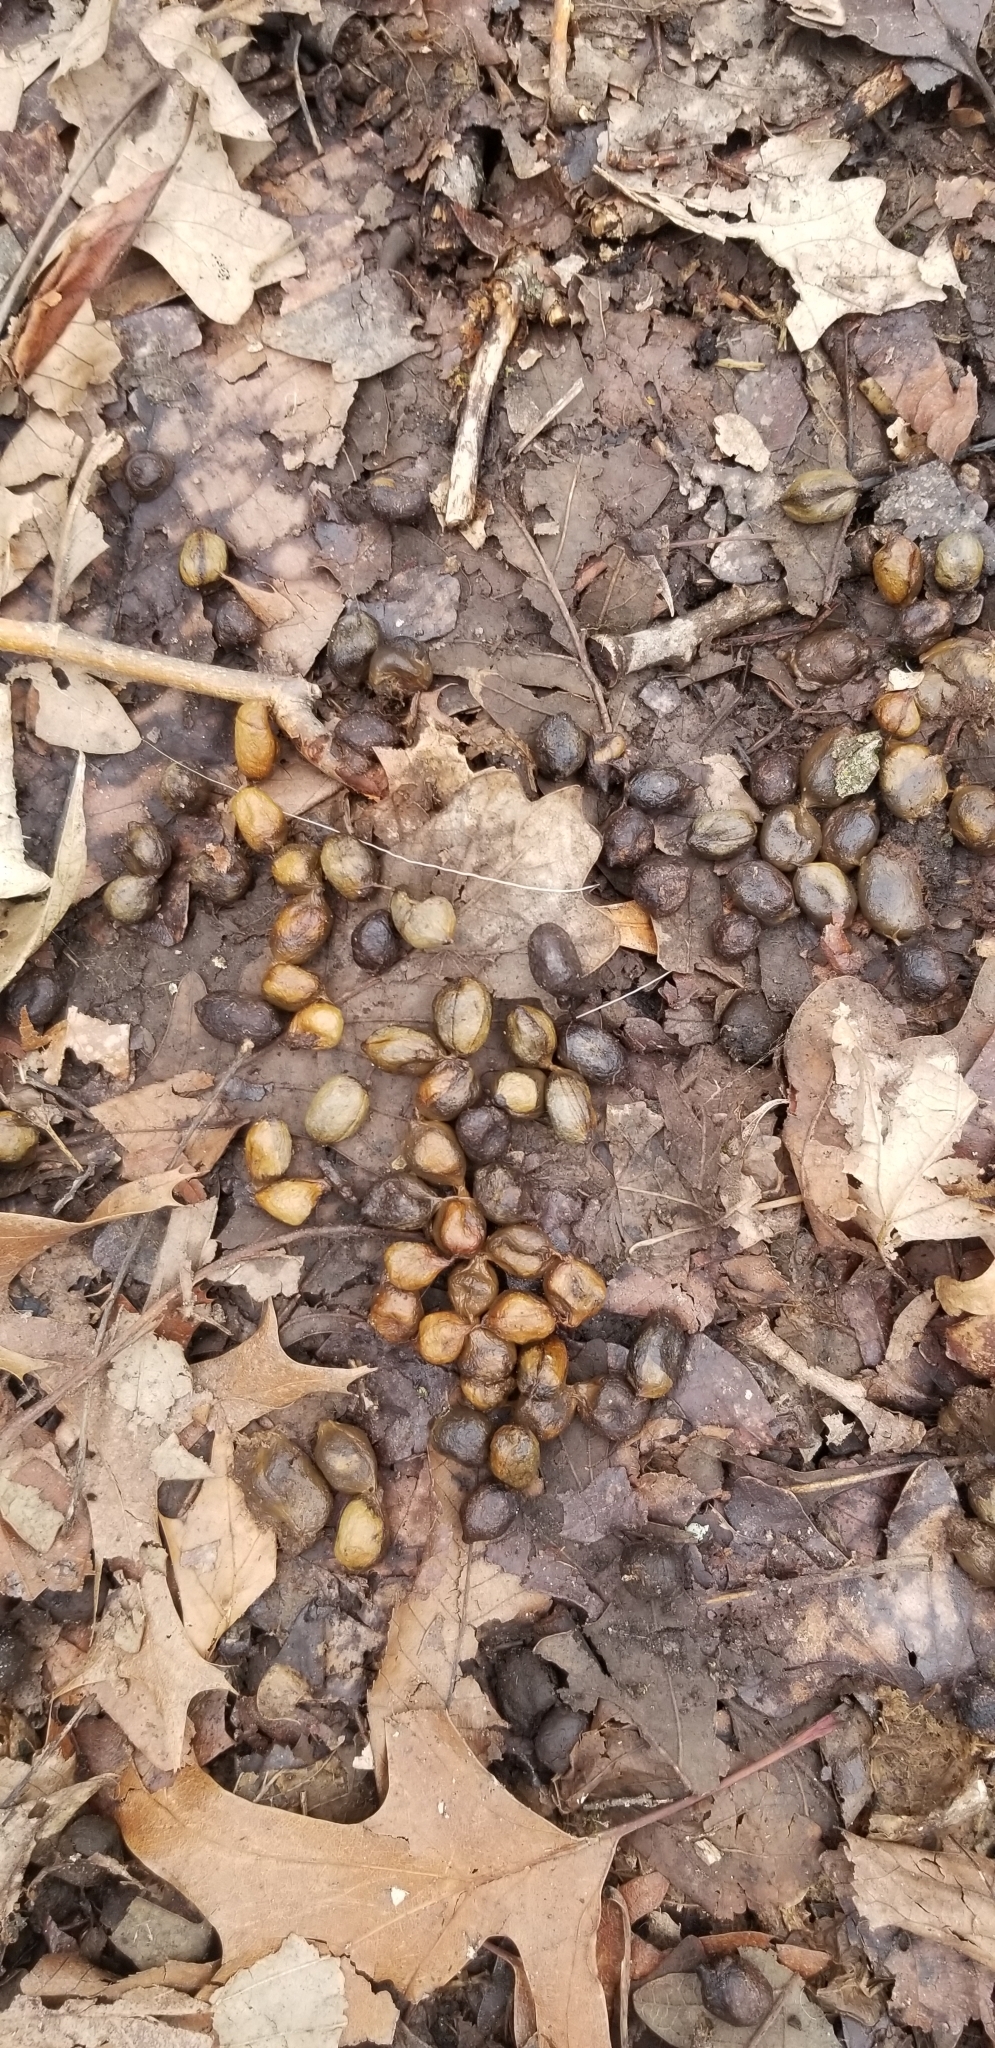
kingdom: Animalia
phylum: Chordata
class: Mammalia
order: Artiodactyla
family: Cervidae
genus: Odocoileus
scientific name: Odocoileus virginianus
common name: White-tailed deer
